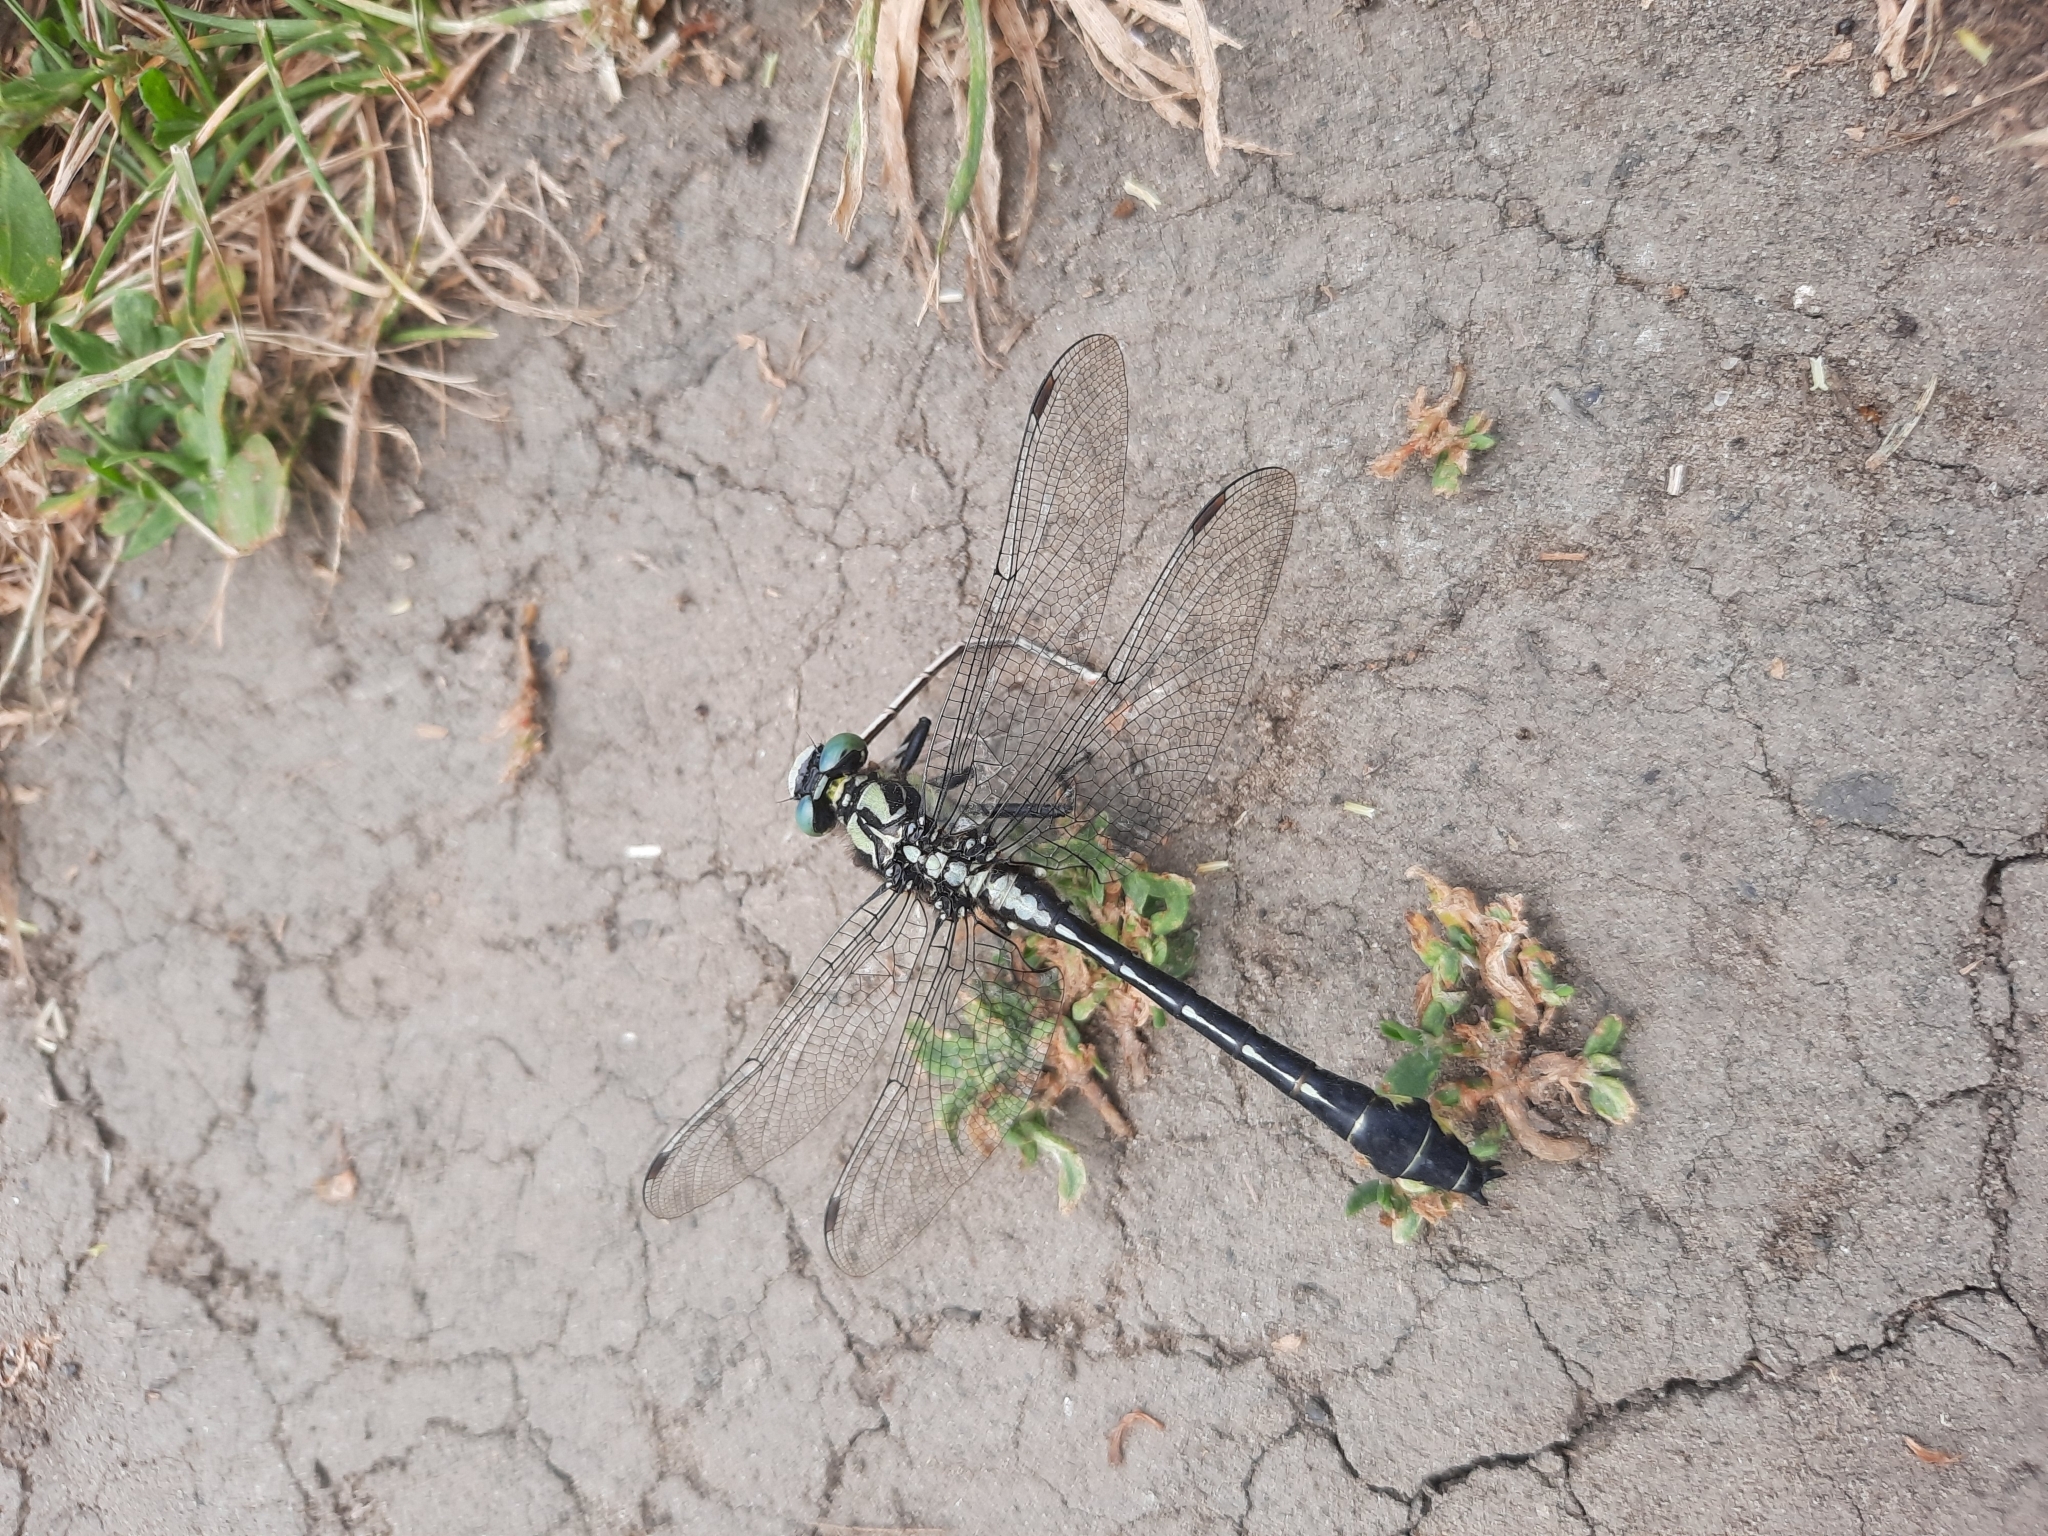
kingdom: Animalia
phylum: Arthropoda
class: Insecta
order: Odonata
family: Gomphidae
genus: Gomphus
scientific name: Gomphus vulgatissimus
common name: Club-tailed dragonfly
